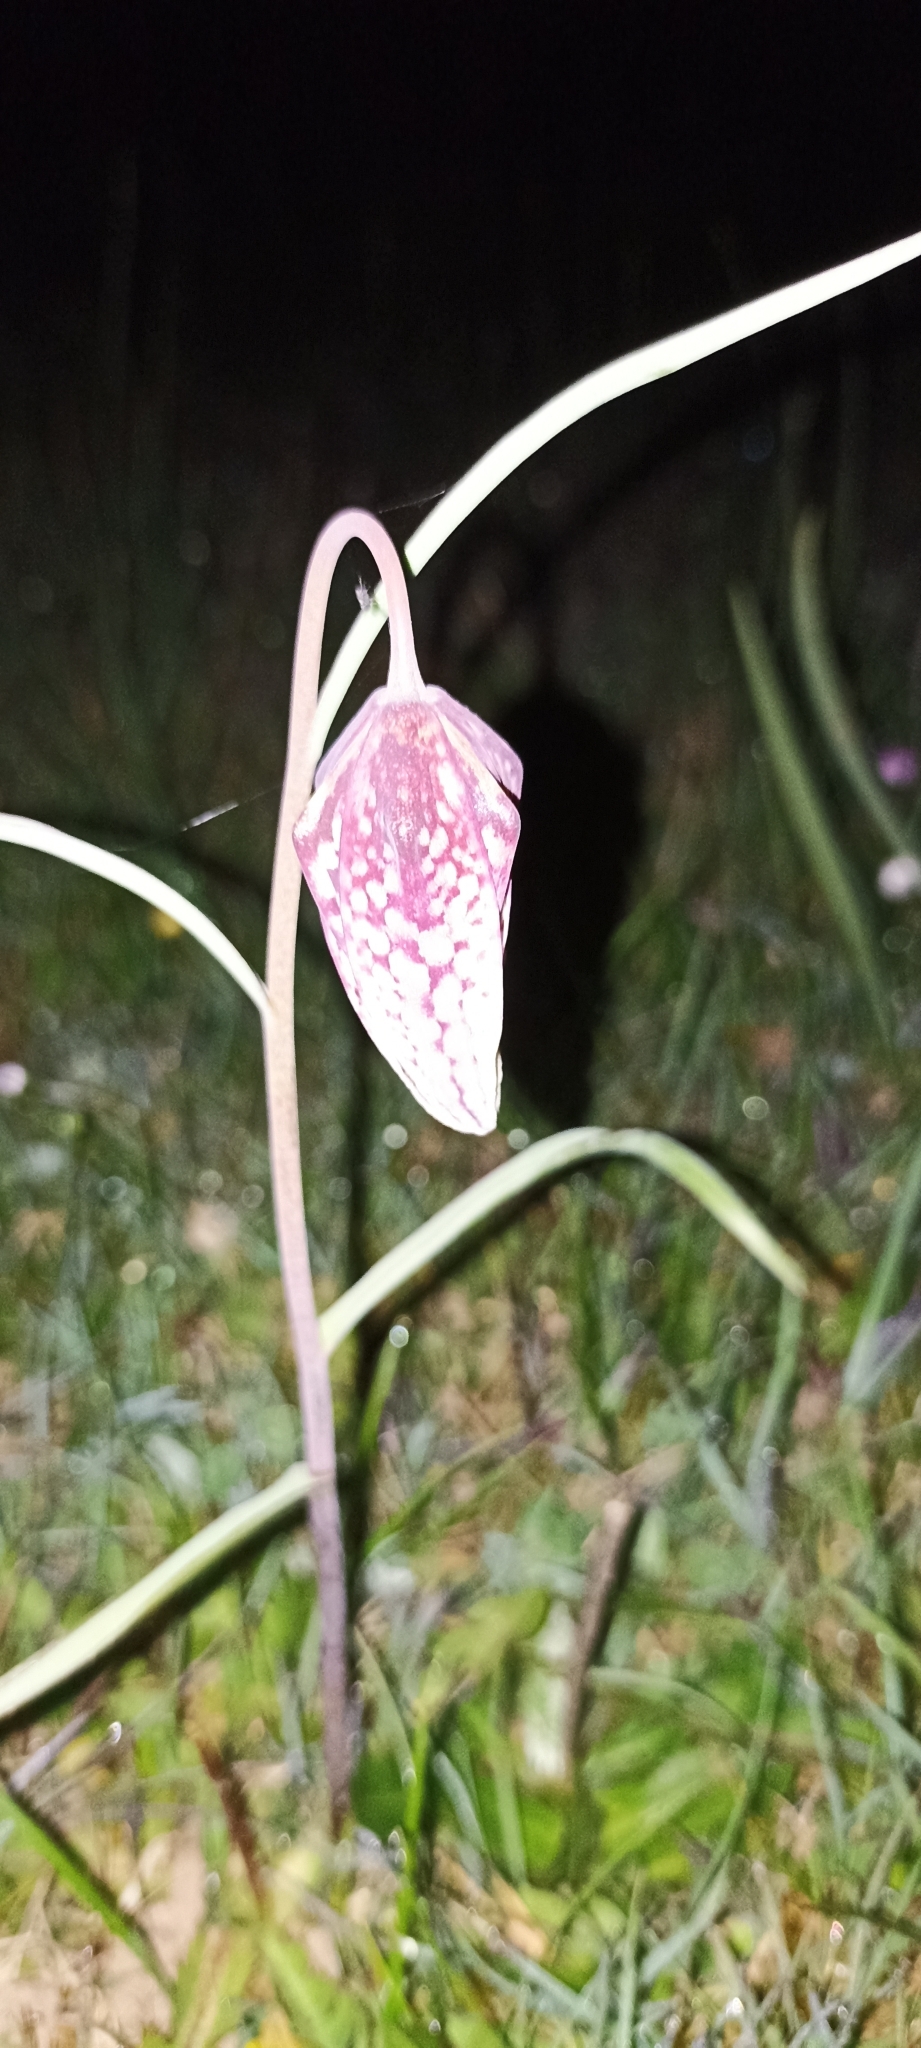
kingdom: Plantae
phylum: Tracheophyta
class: Liliopsida
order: Liliales
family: Liliaceae
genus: Fritillaria
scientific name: Fritillaria meleagris
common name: Fritillary
